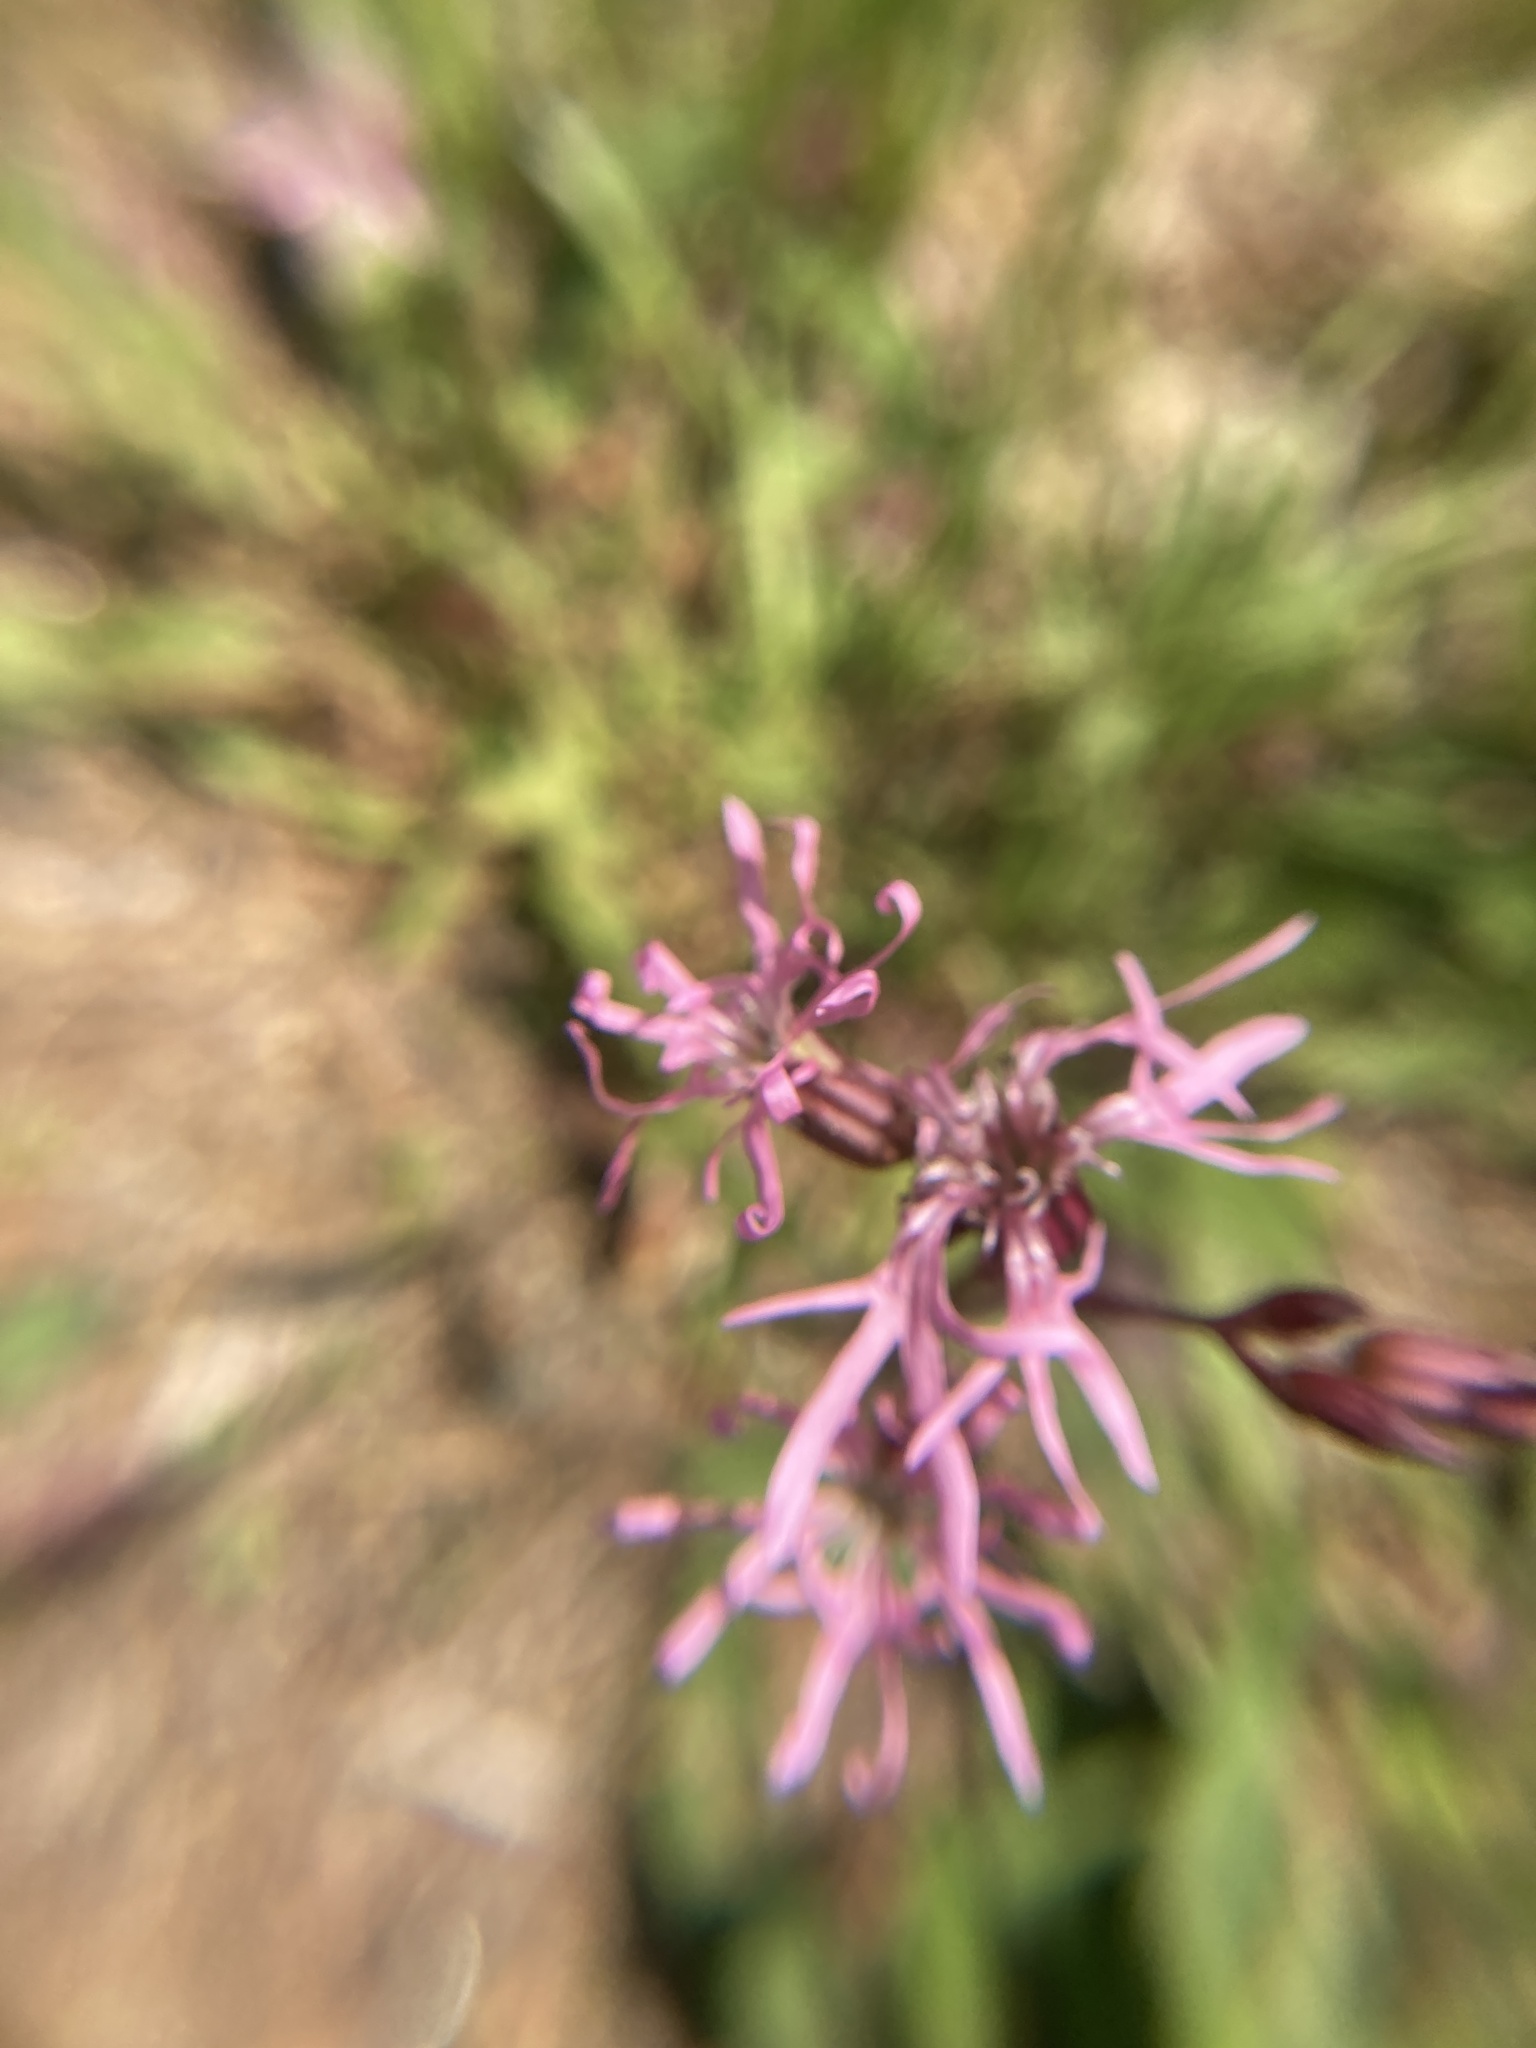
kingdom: Plantae
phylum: Tracheophyta
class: Magnoliopsida
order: Caryophyllales
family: Caryophyllaceae
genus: Silene
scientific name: Silene flos-cuculi
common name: Ragged-robin
